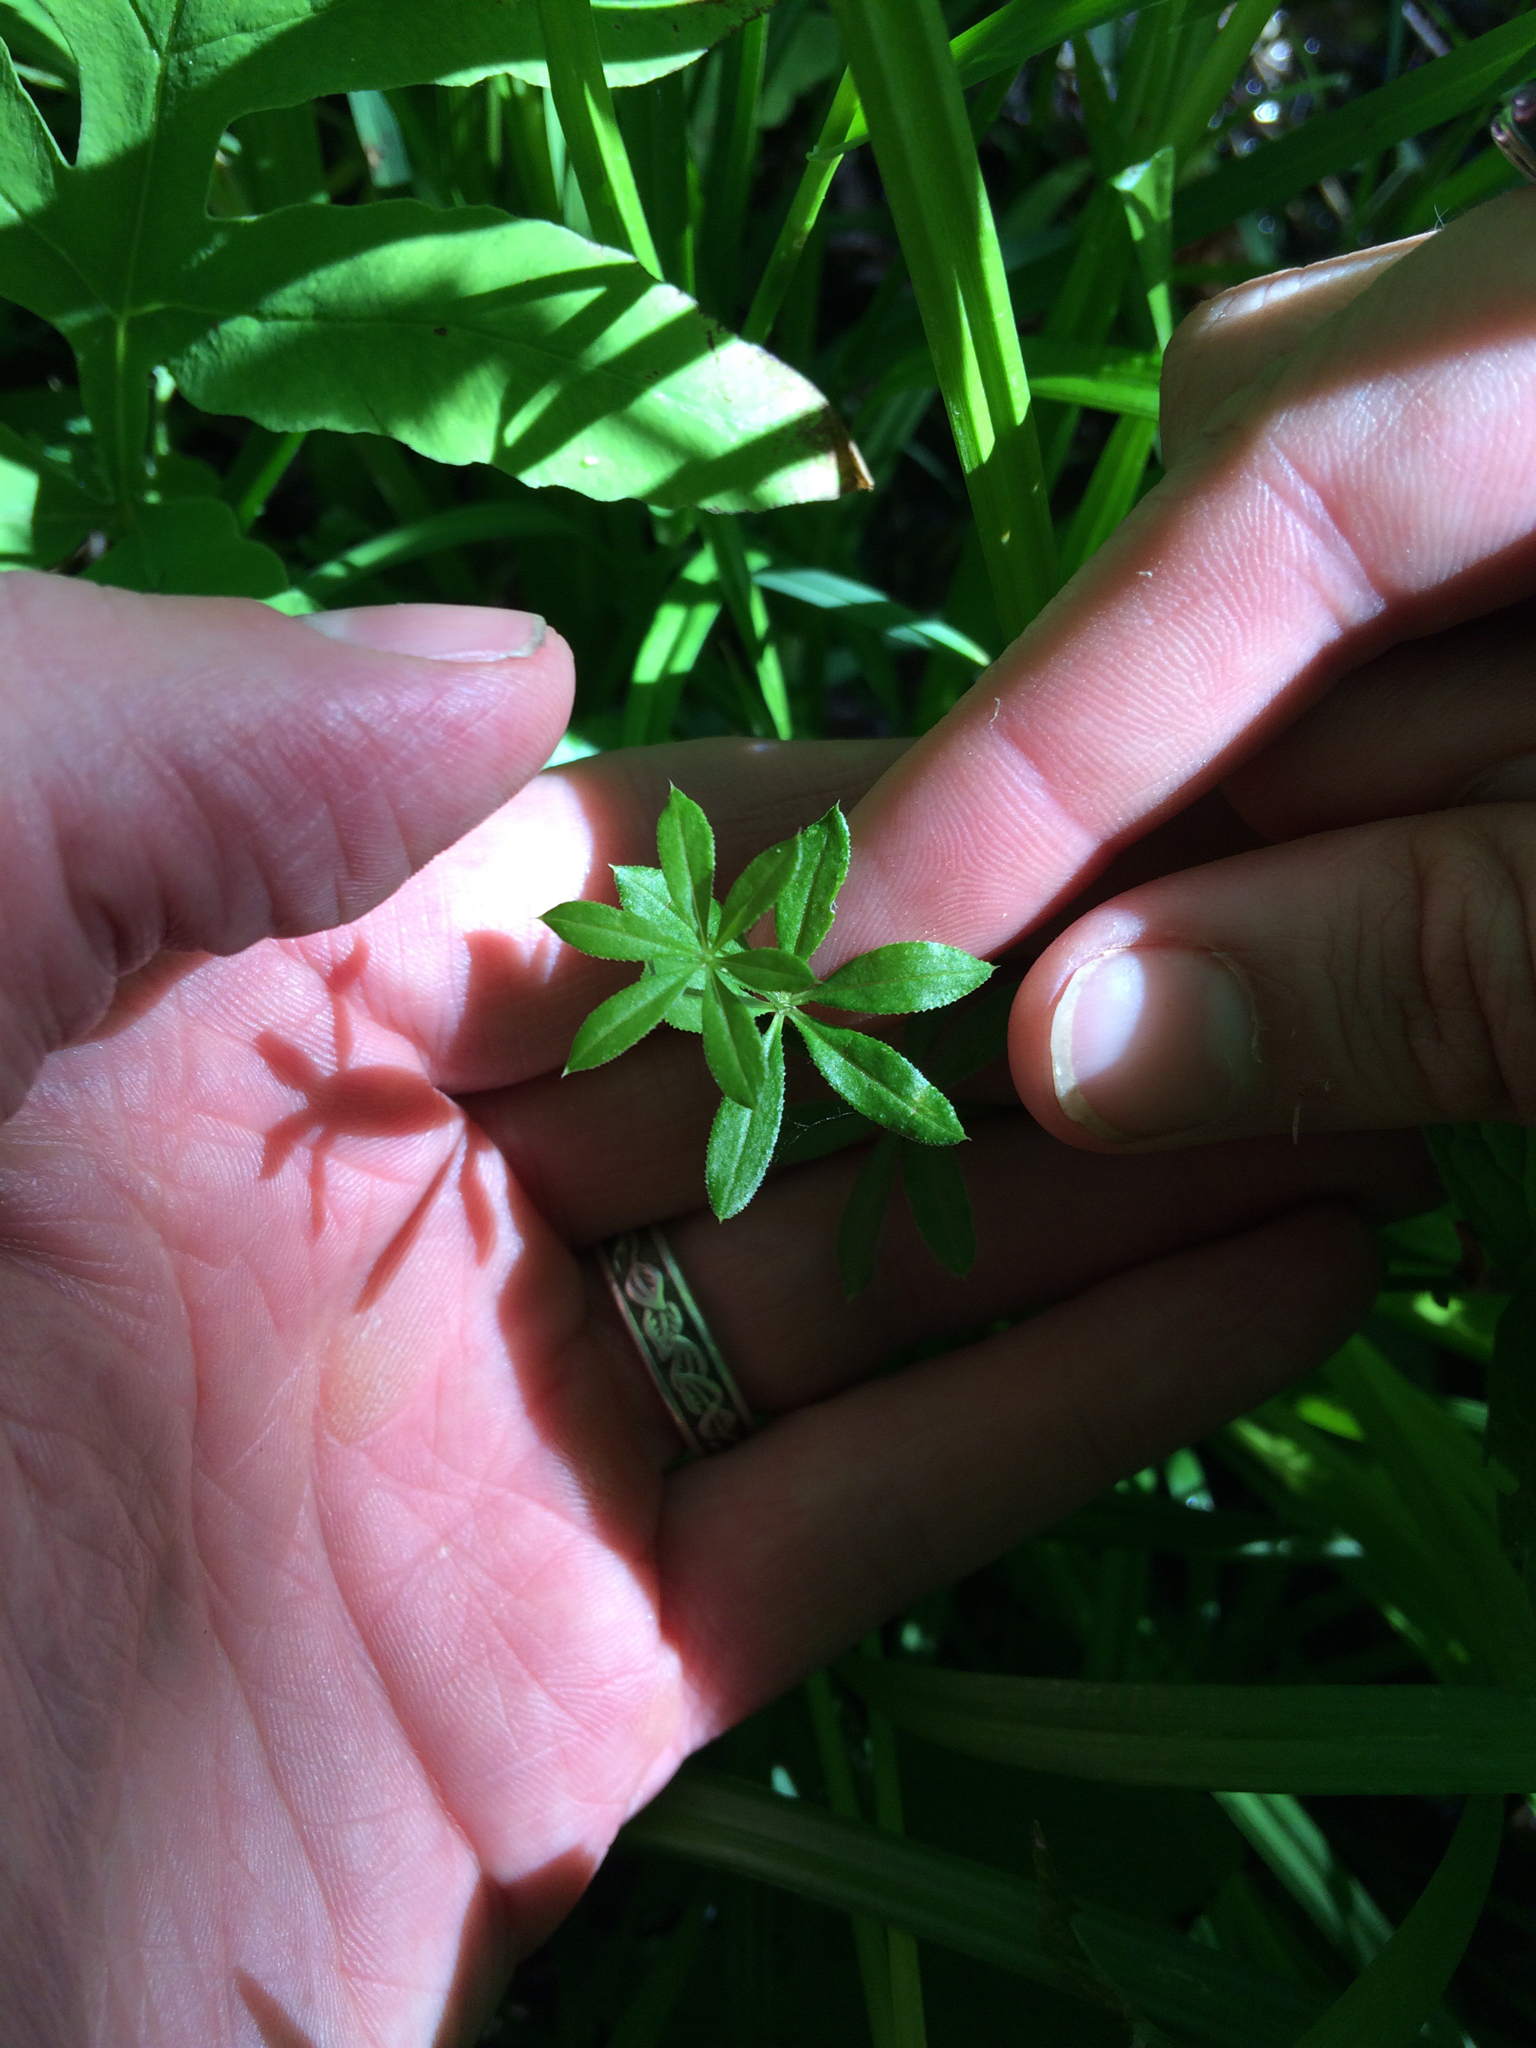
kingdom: Plantae
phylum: Tracheophyta
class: Magnoliopsida
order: Gentianales
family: Rubiaceae
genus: Galium
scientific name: Galium asprellum
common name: Rough bedstraw
